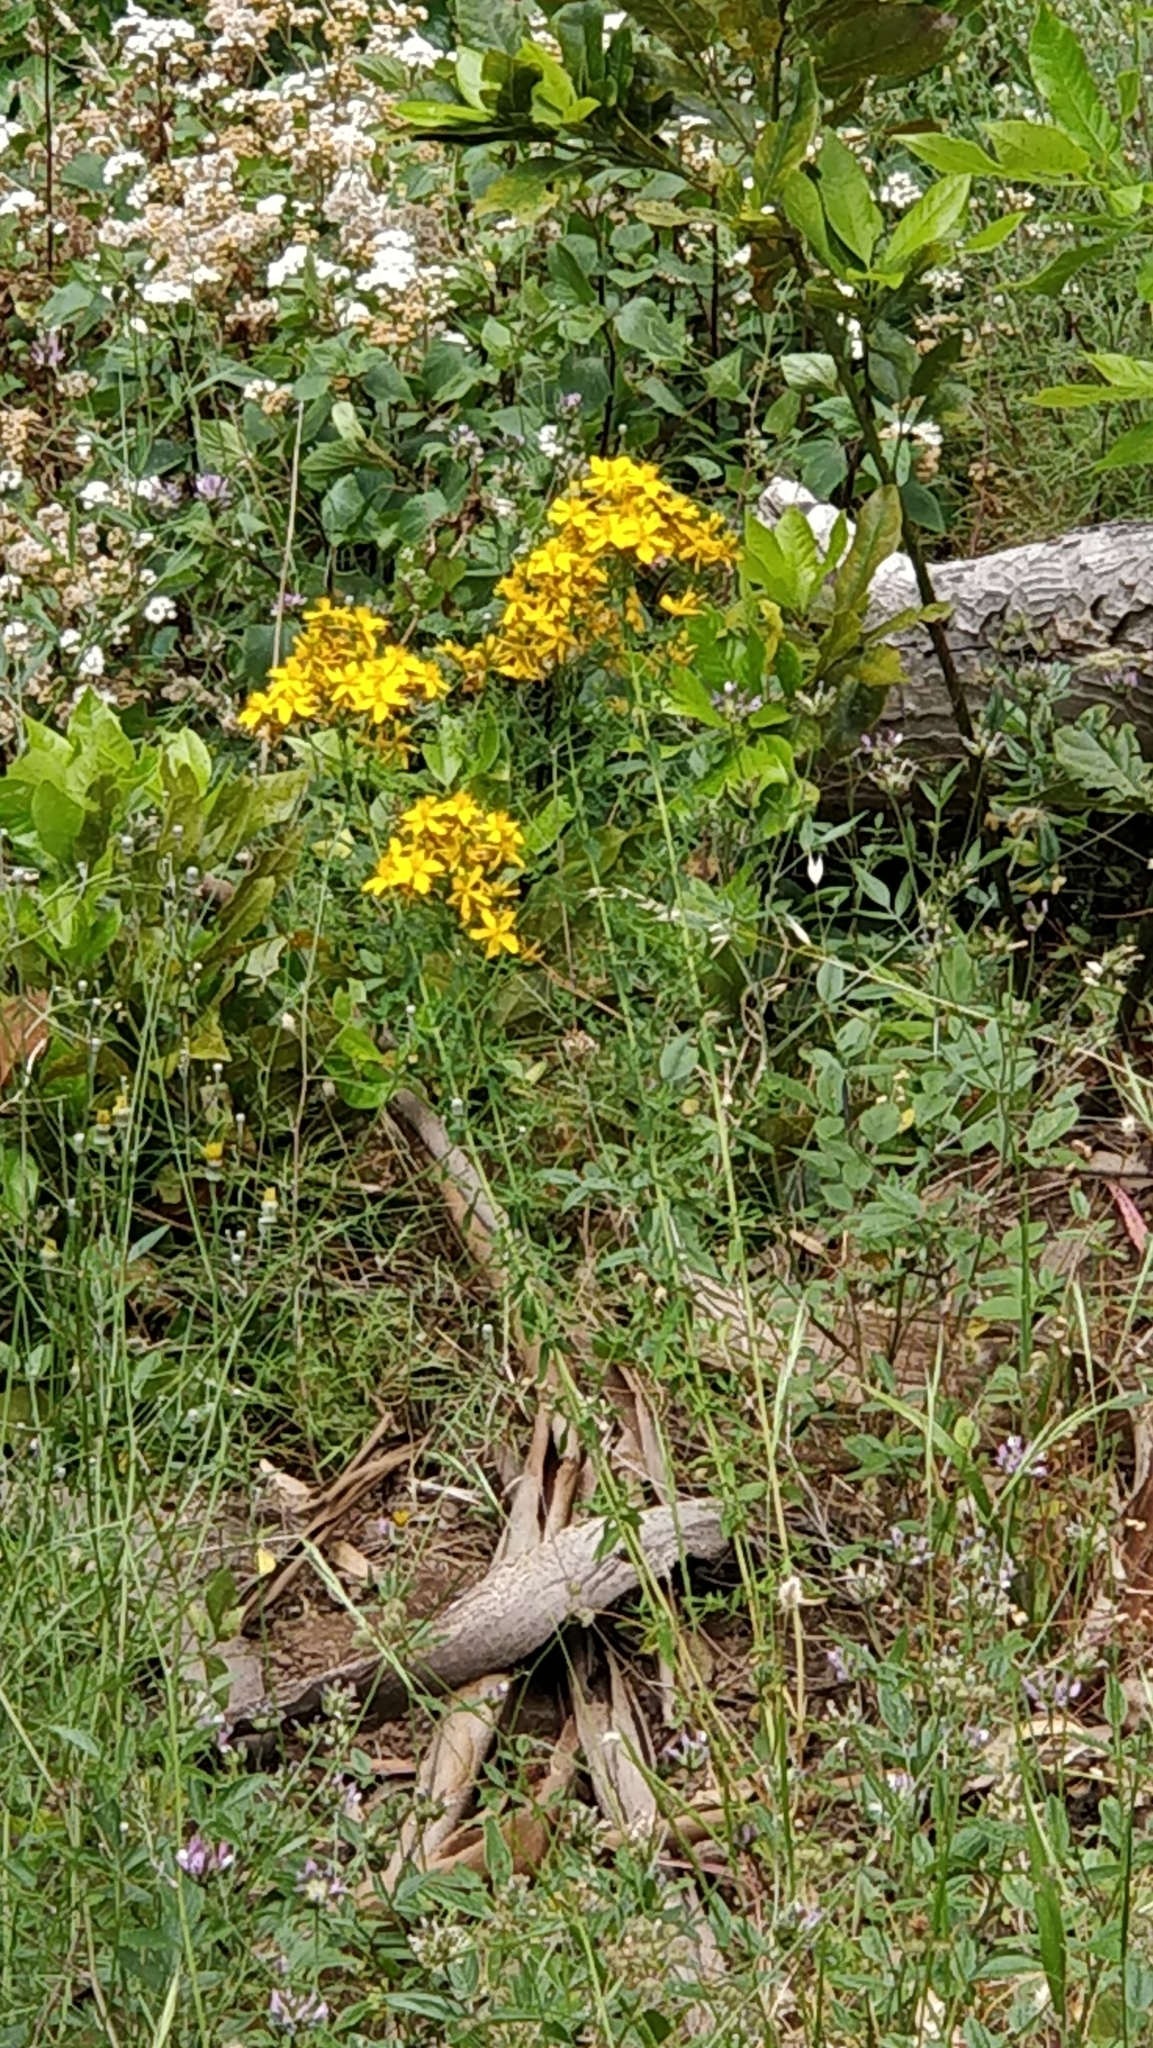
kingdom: Plantae
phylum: Tracheophyta
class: Magnoliopsida
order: Malpighiales
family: Hypericaceae
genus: Hypericum
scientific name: Hypericum perforatum
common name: Common st. johnswort
